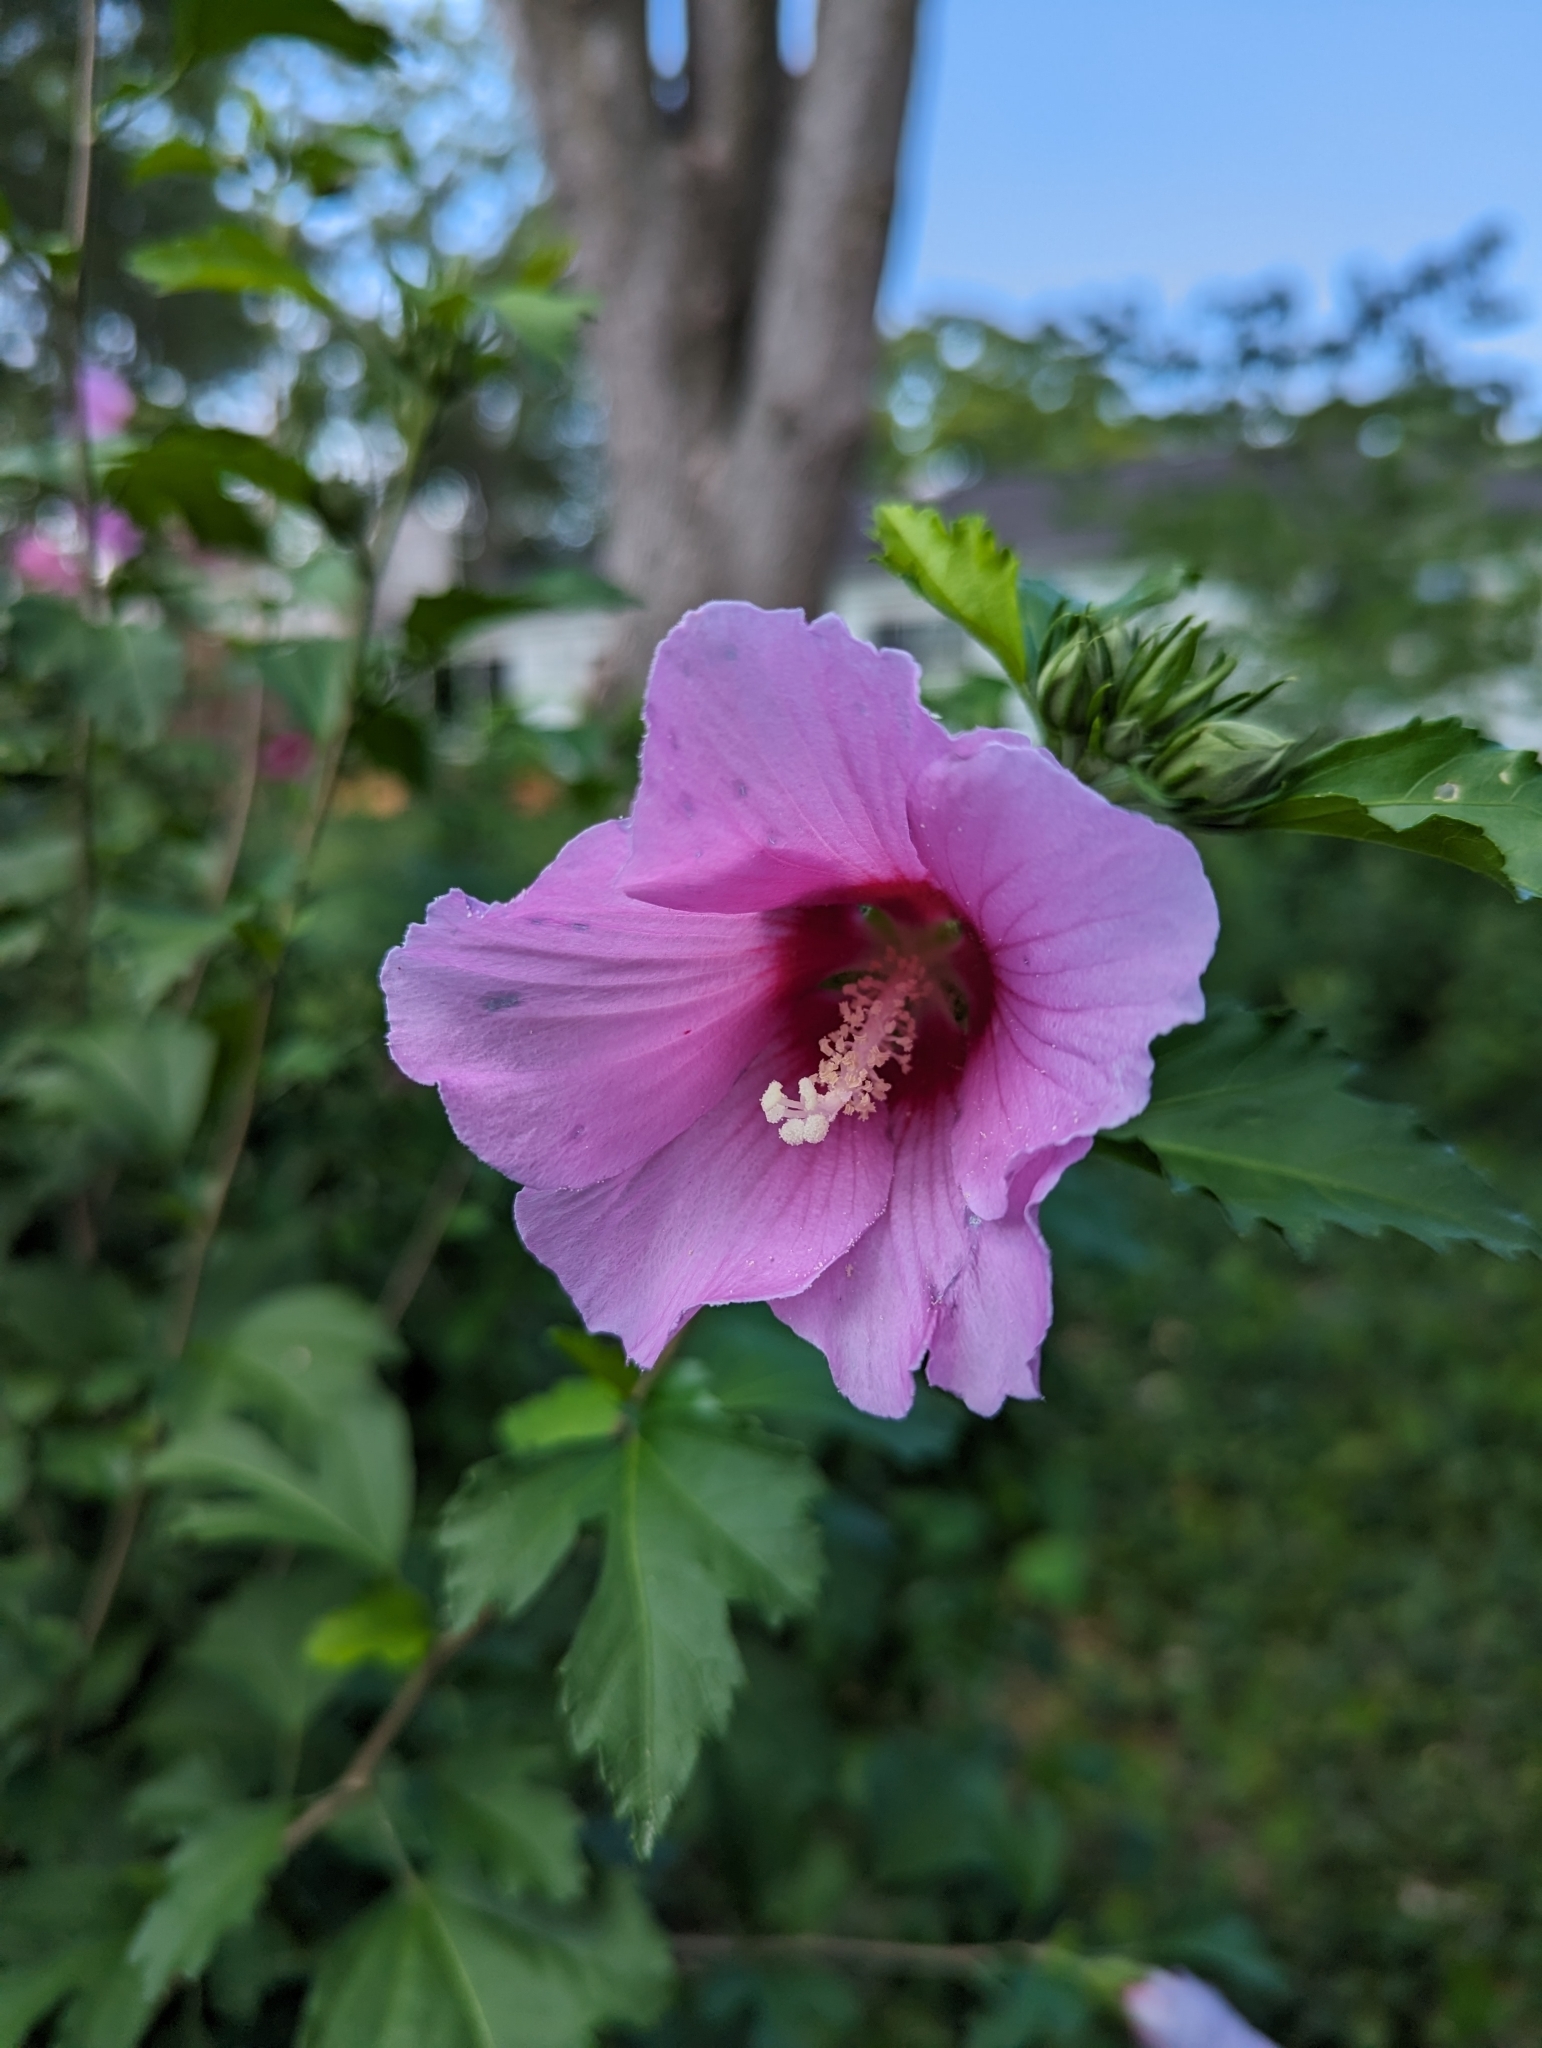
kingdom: Plantae
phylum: Tracheophyta
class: Magnoliopsida
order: Malvales
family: Malvaceae
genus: Hibiscus
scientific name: Hibiscus syriacus
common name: Syrian ketmia
